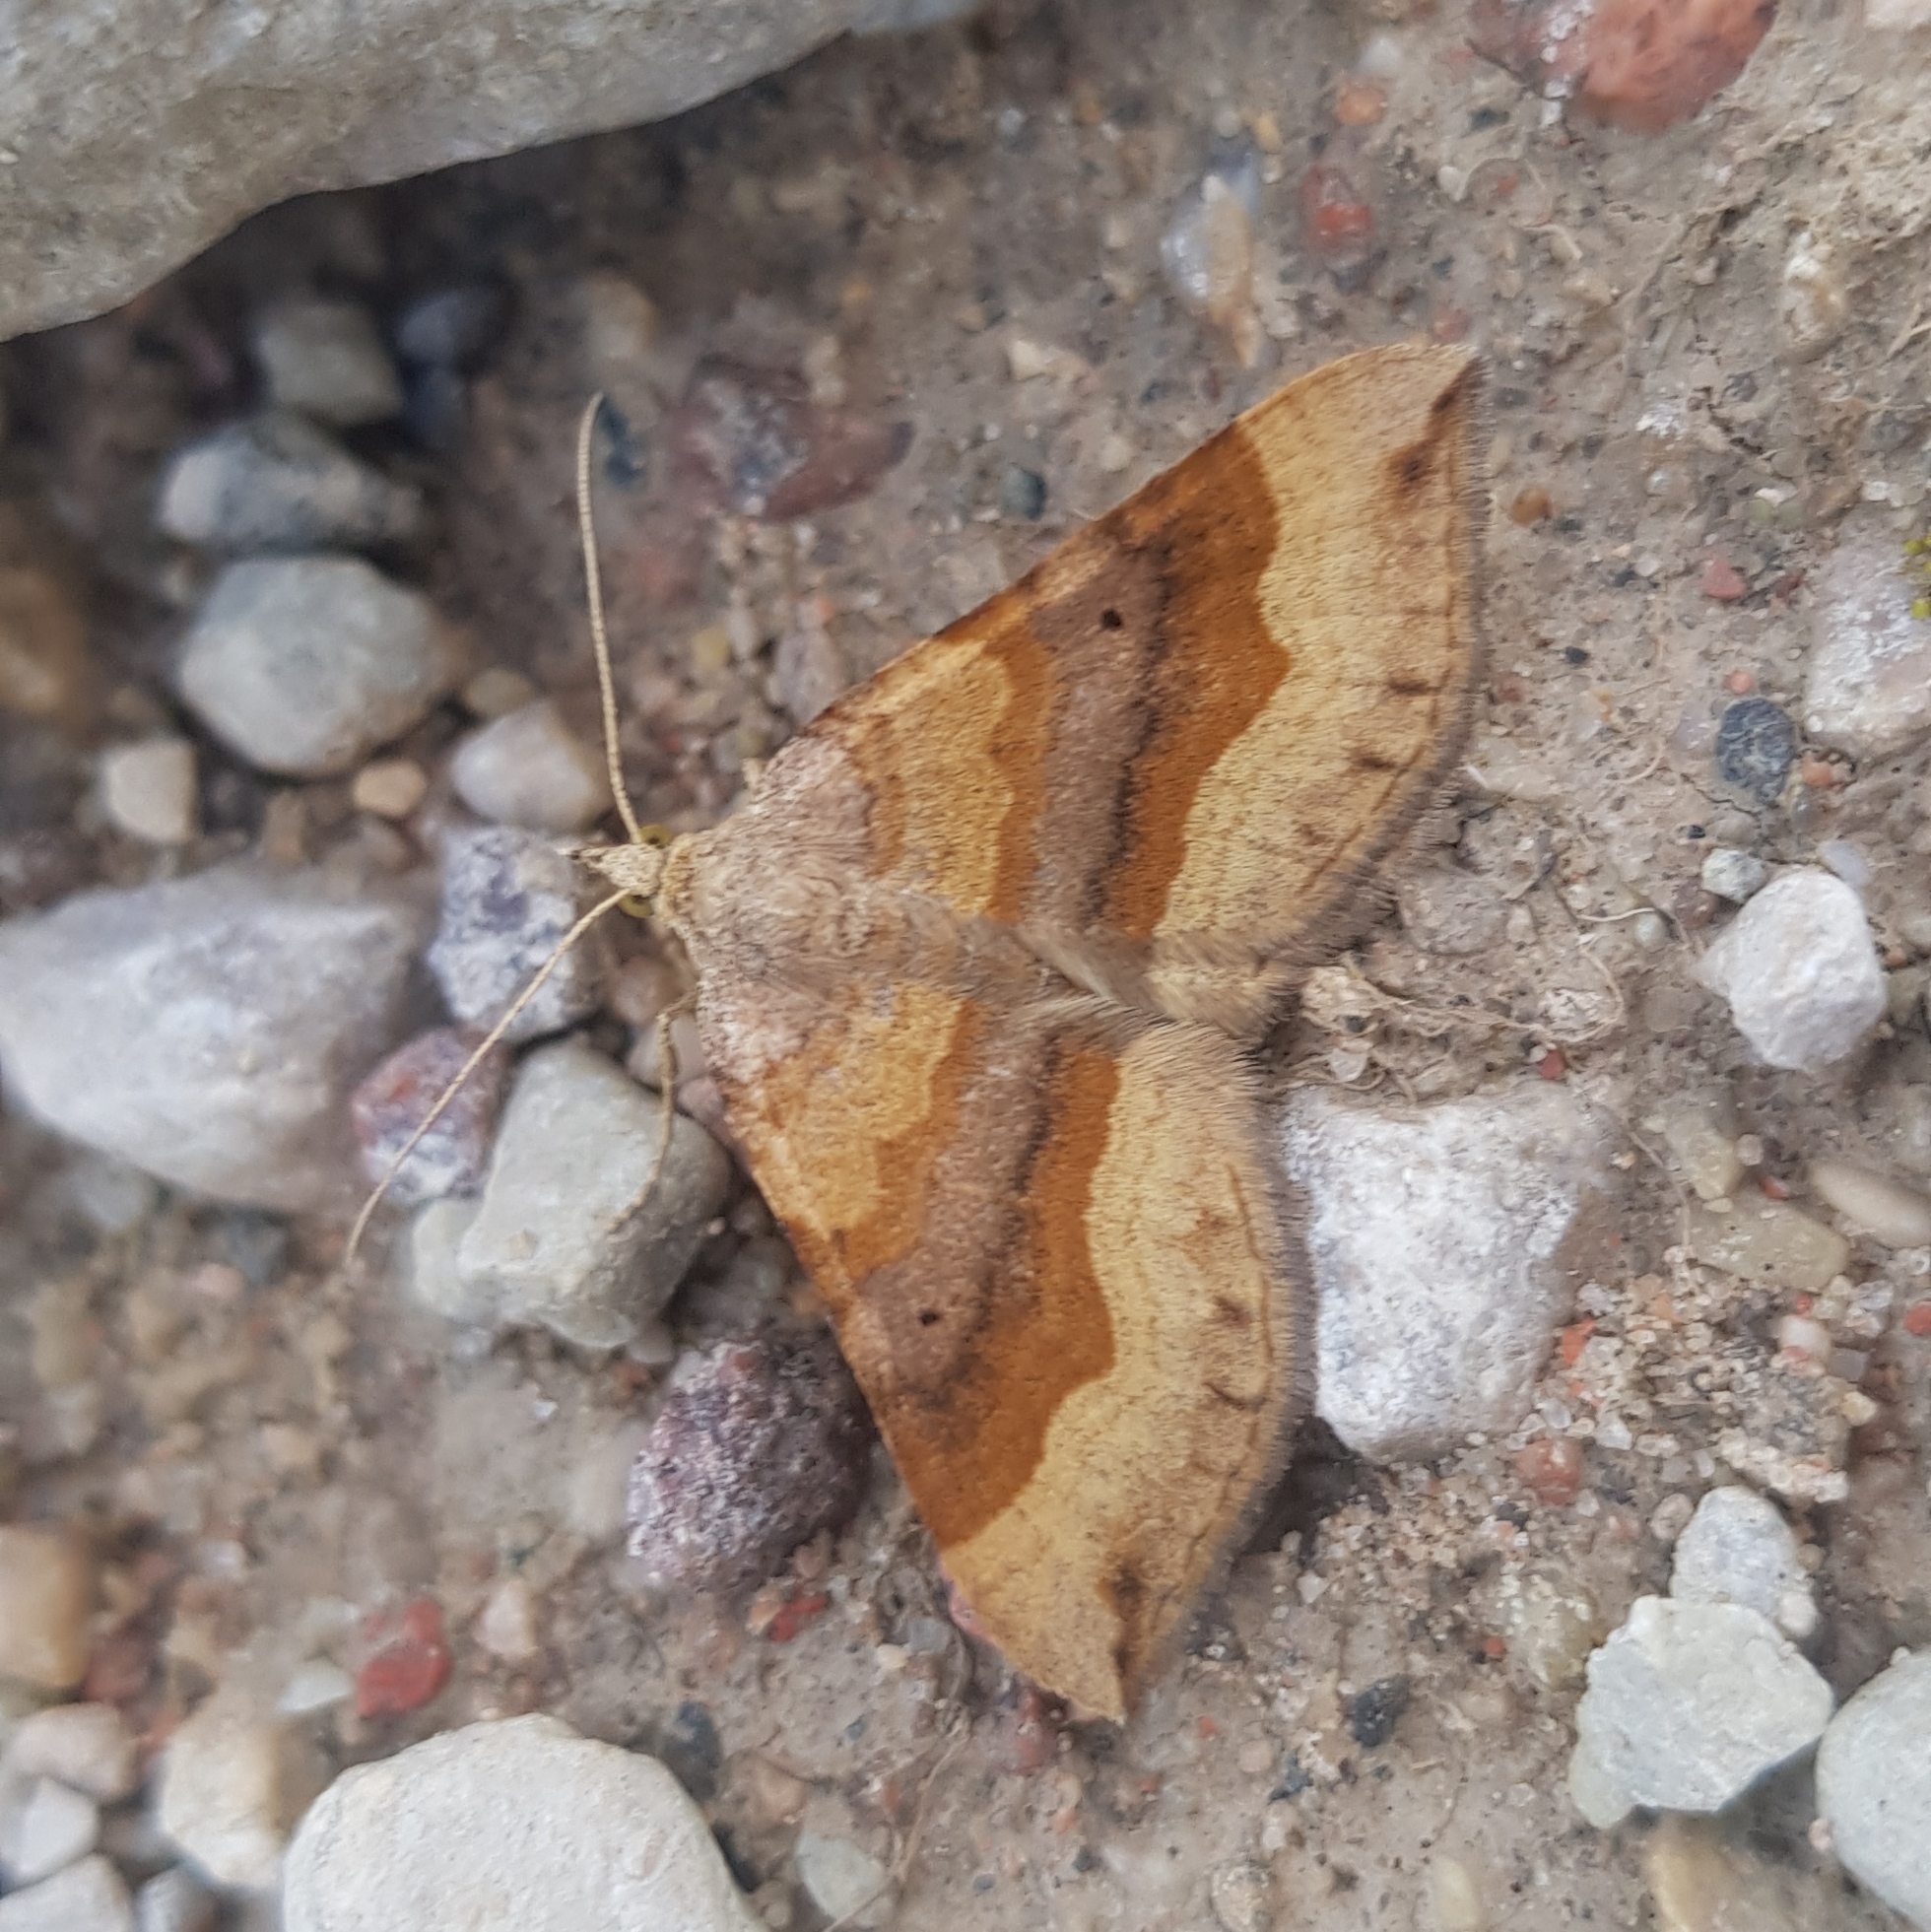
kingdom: Animalia
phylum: Arthropoda
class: Insecta
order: Lepidoptera
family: Geometridae
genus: Scotopteryx
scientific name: Scotopteryx chenopodiata
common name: Shaded broad-bar
